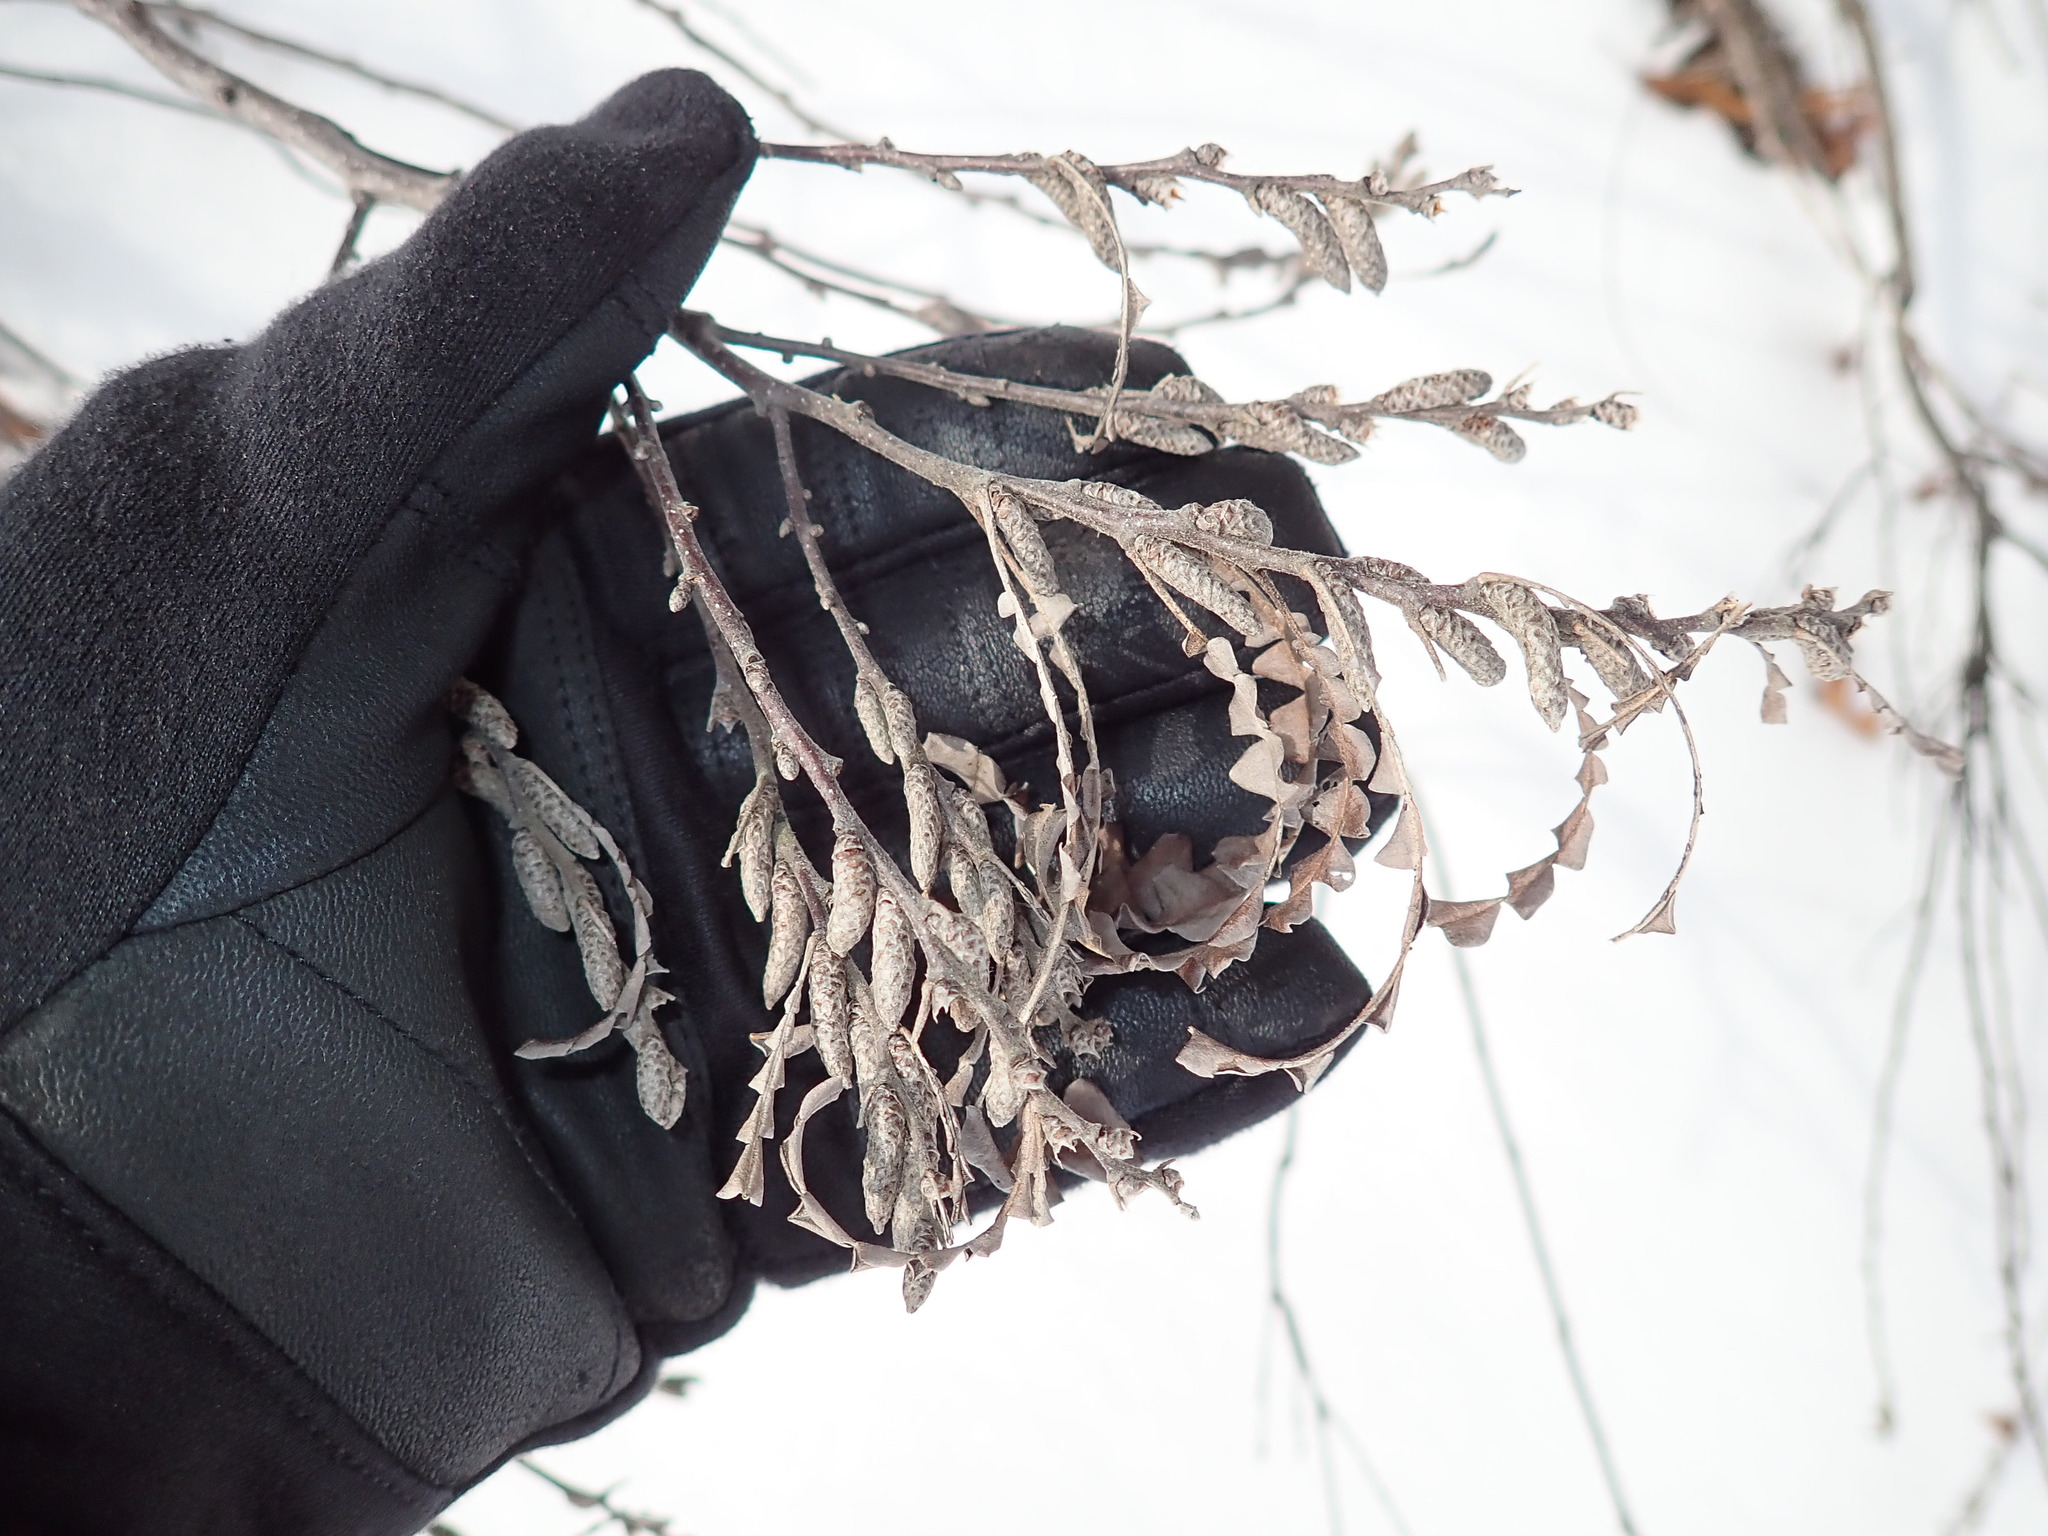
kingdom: Plantae
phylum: Tracheophyta
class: Magnoliopsida
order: Fagales
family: Myricaceae
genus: Comptonia
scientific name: Comptonia peregrina
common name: Sweet-fern
